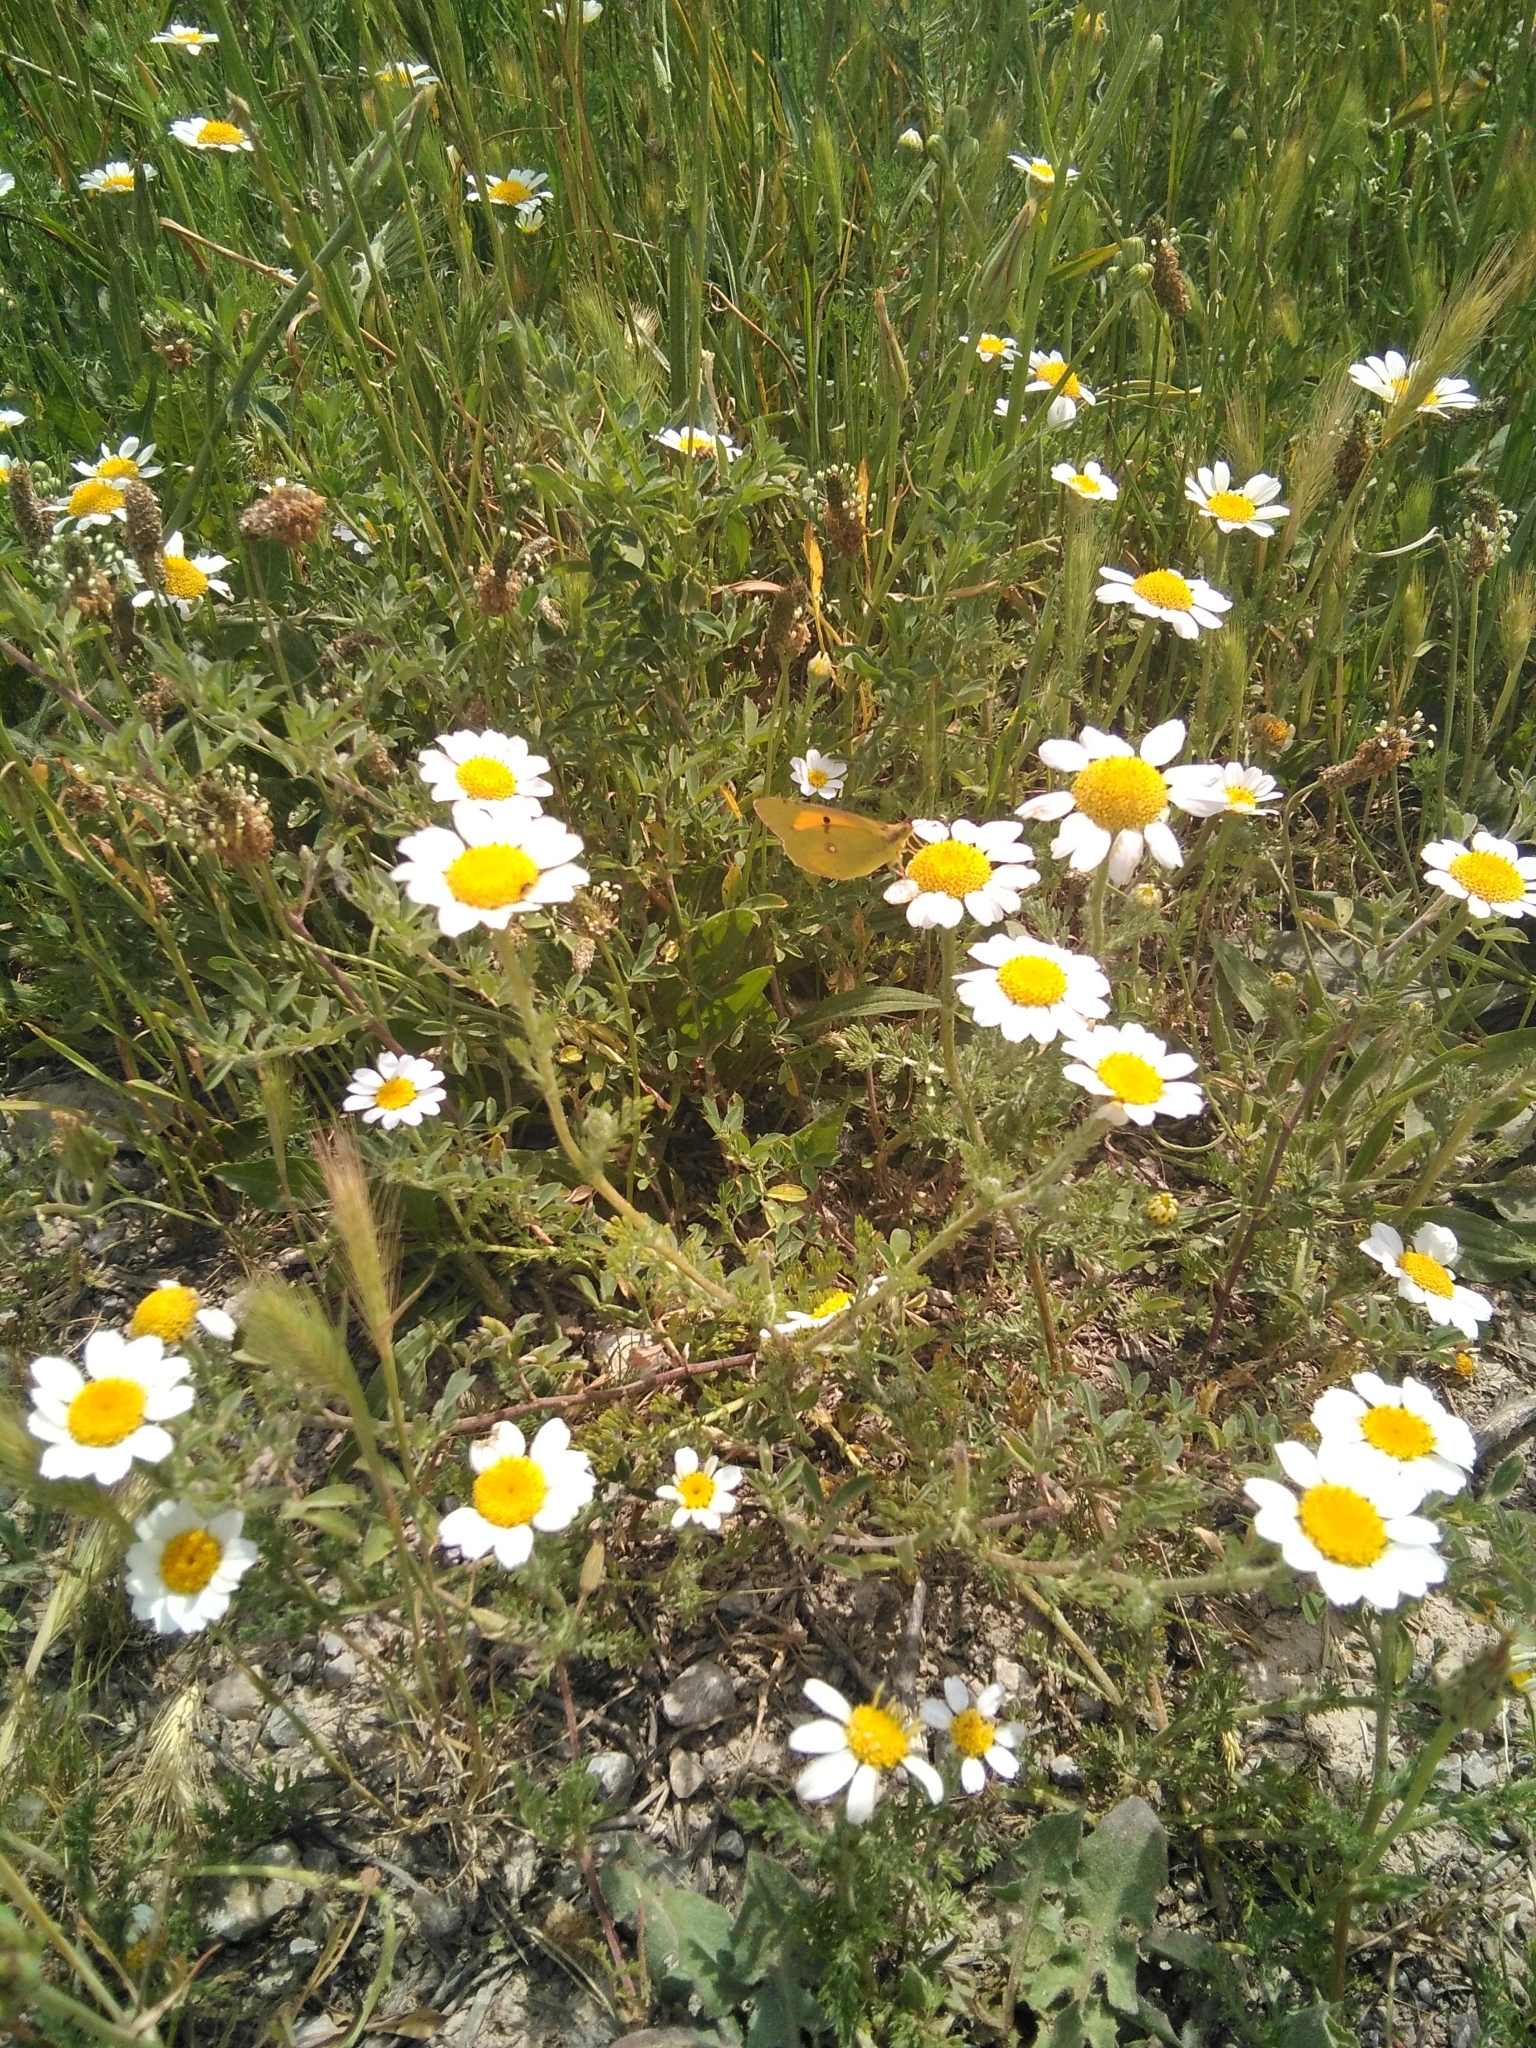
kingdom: Animalia
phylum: Arthropoda
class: Insecta
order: Lepidoptera
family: Pieridae
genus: Colias
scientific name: Colias croceus
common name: Clouded yellow
